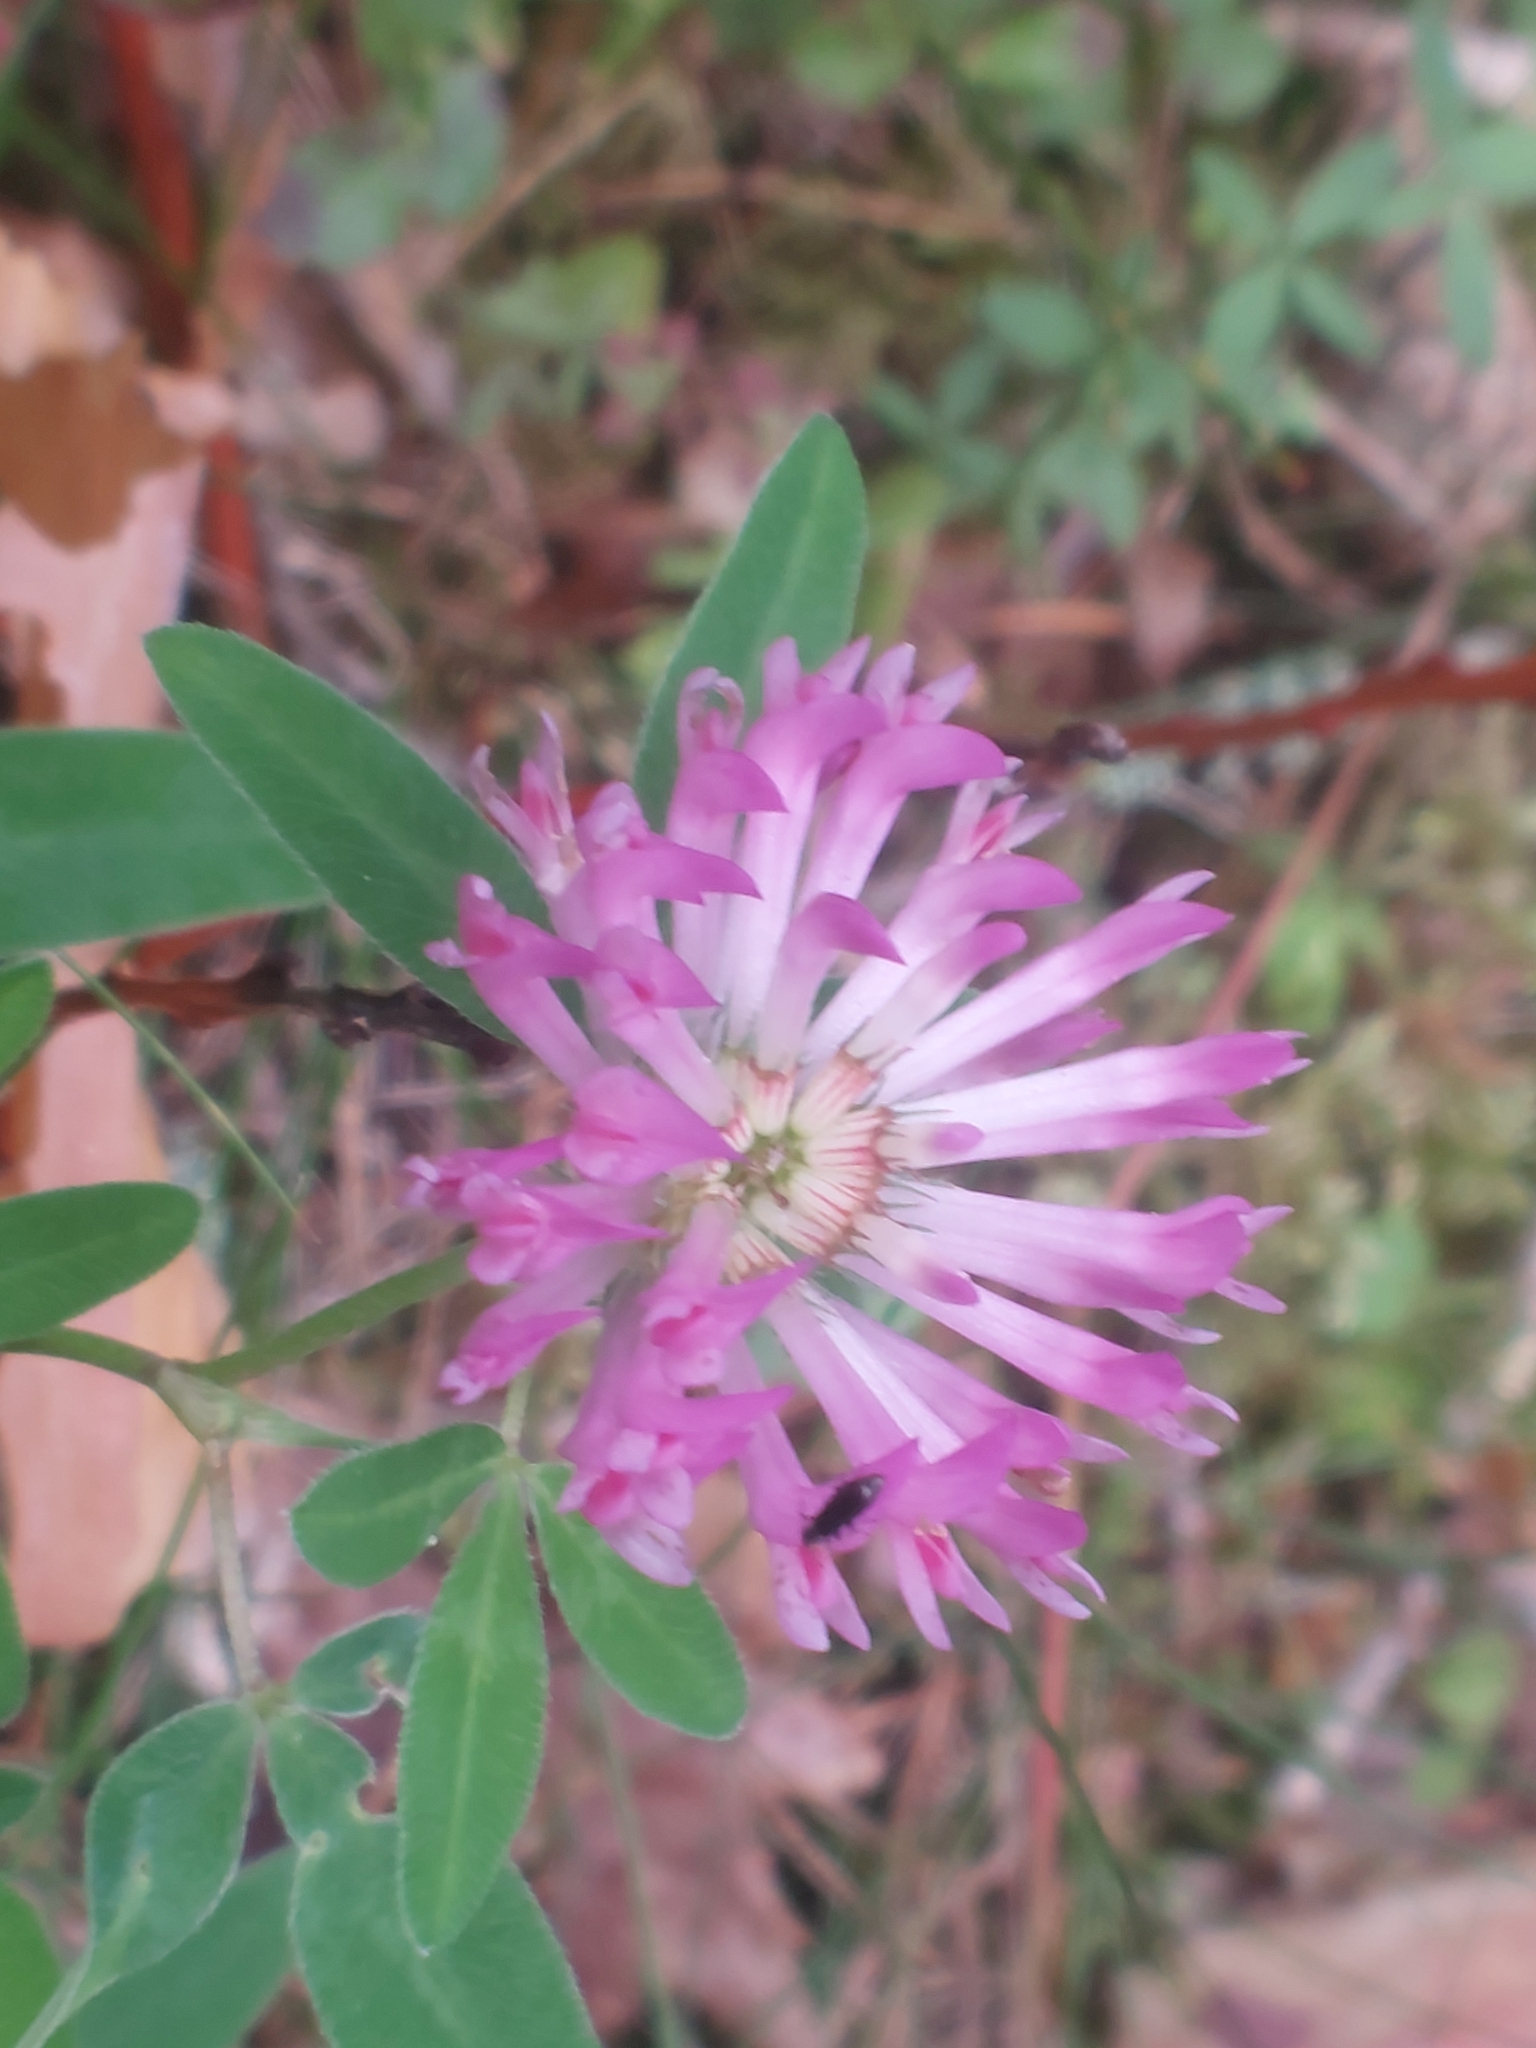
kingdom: Plantae
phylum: Tracheophyta
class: Magnoliopsida
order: Fabales
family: Fabaceae
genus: Trifolium
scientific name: Trifolium medium
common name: Zigzag clover
